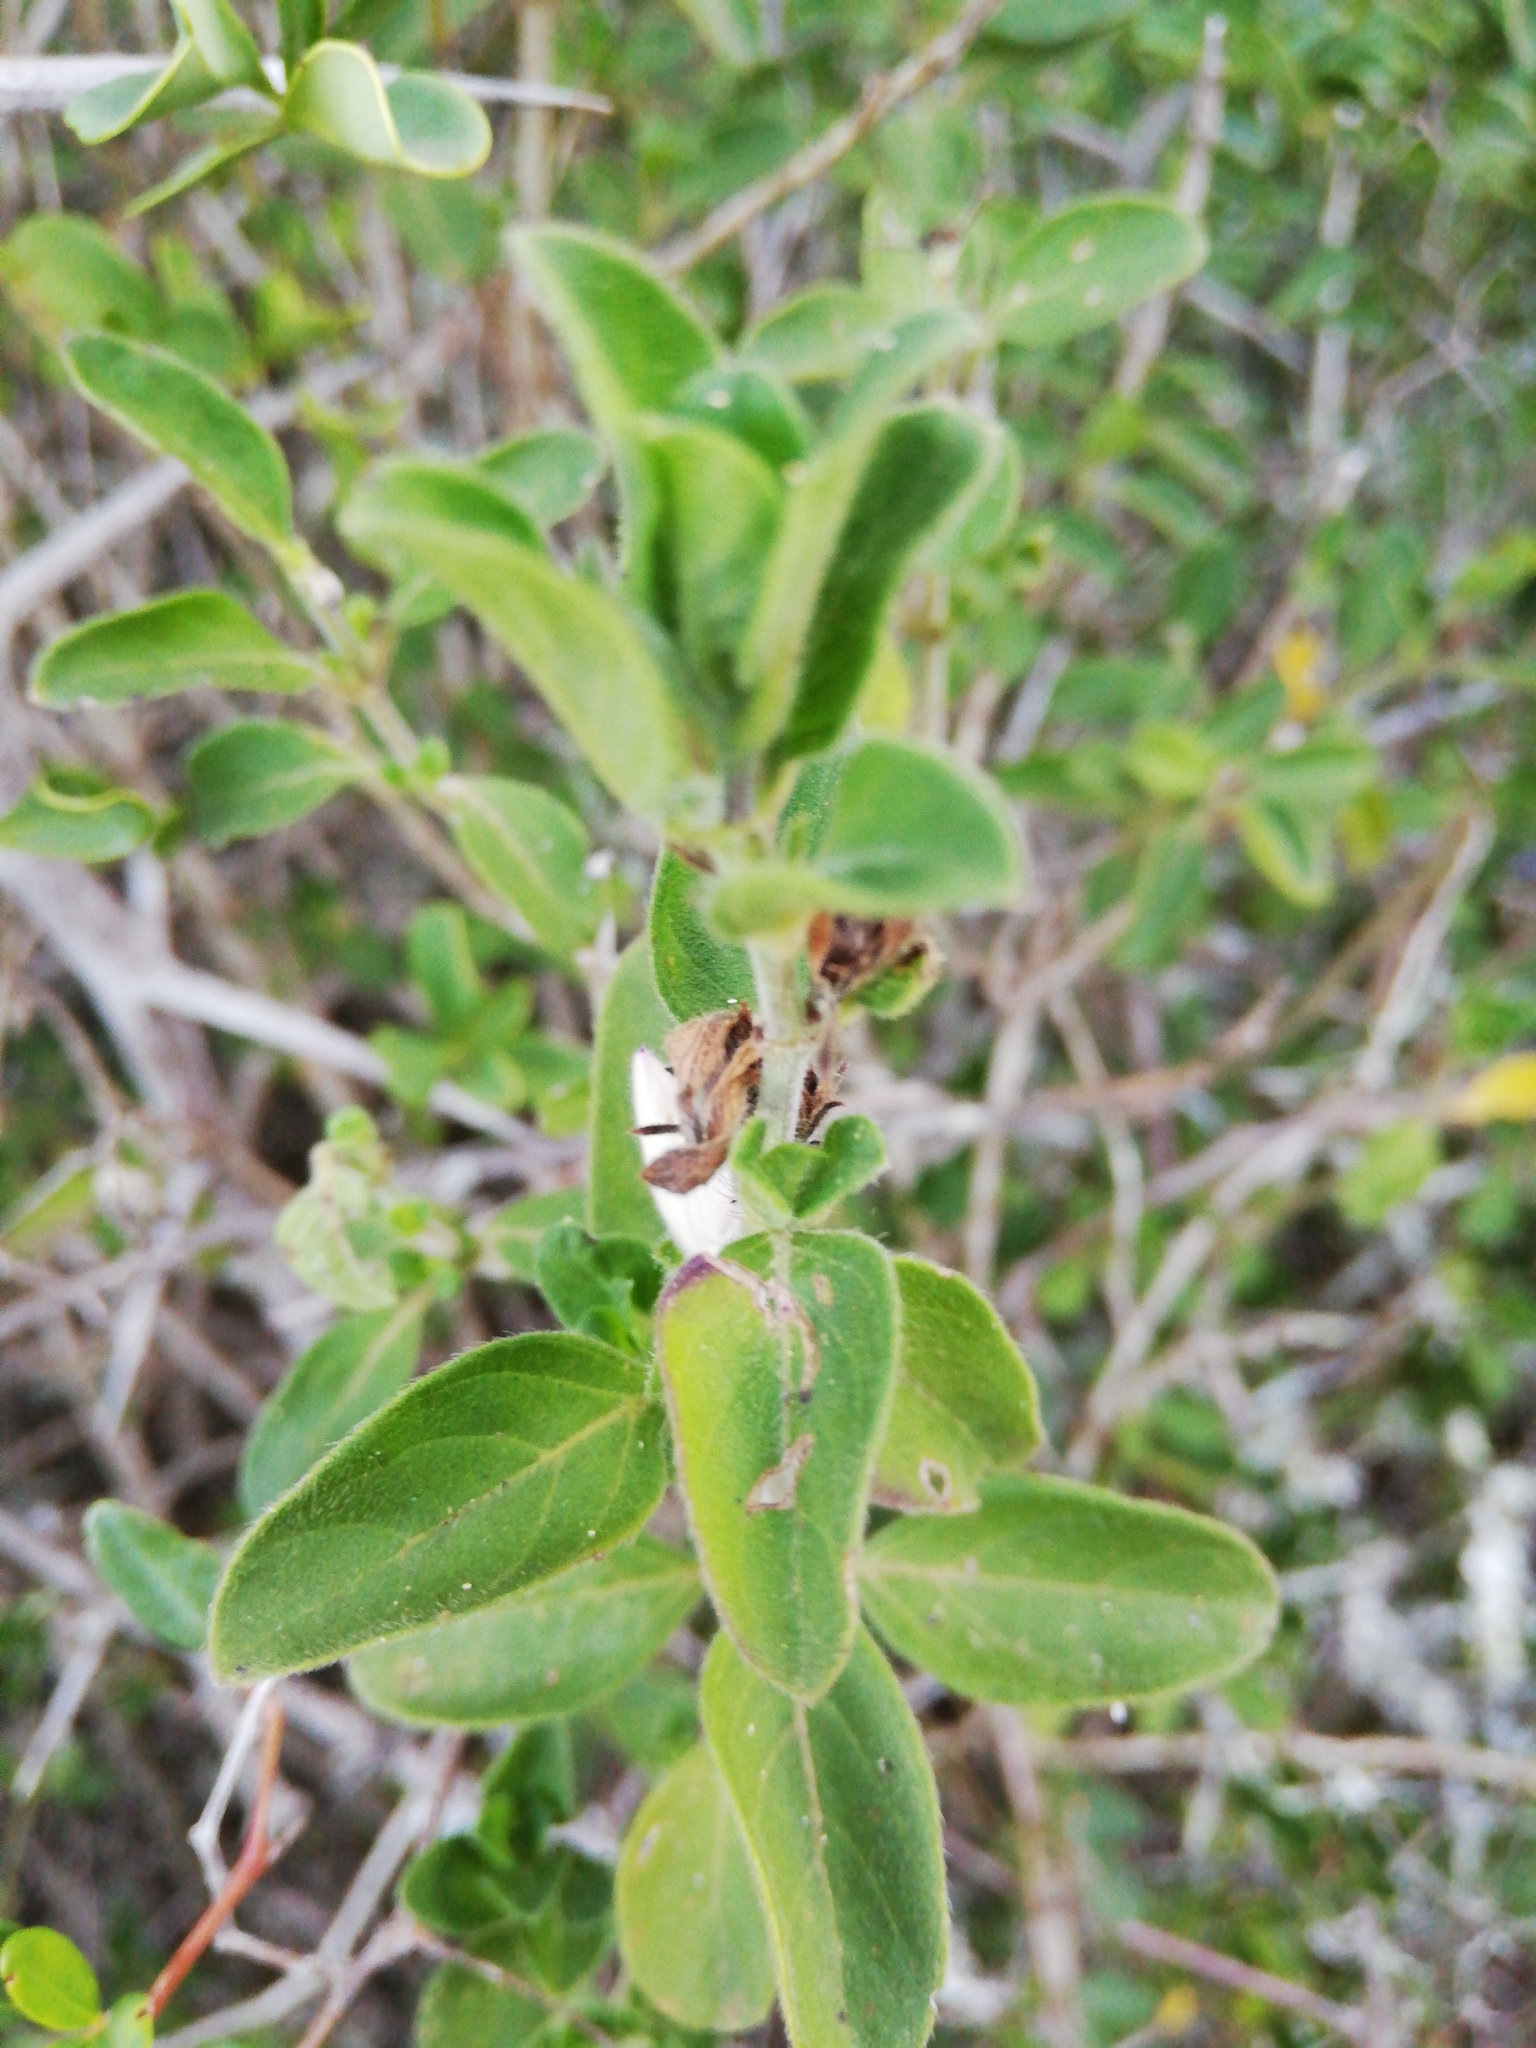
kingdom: Plantae
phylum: Tracheophyta
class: Magnoliopsida
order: Lamiales
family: Acanthaceae
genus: Barleria
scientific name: Barleria obtusa
